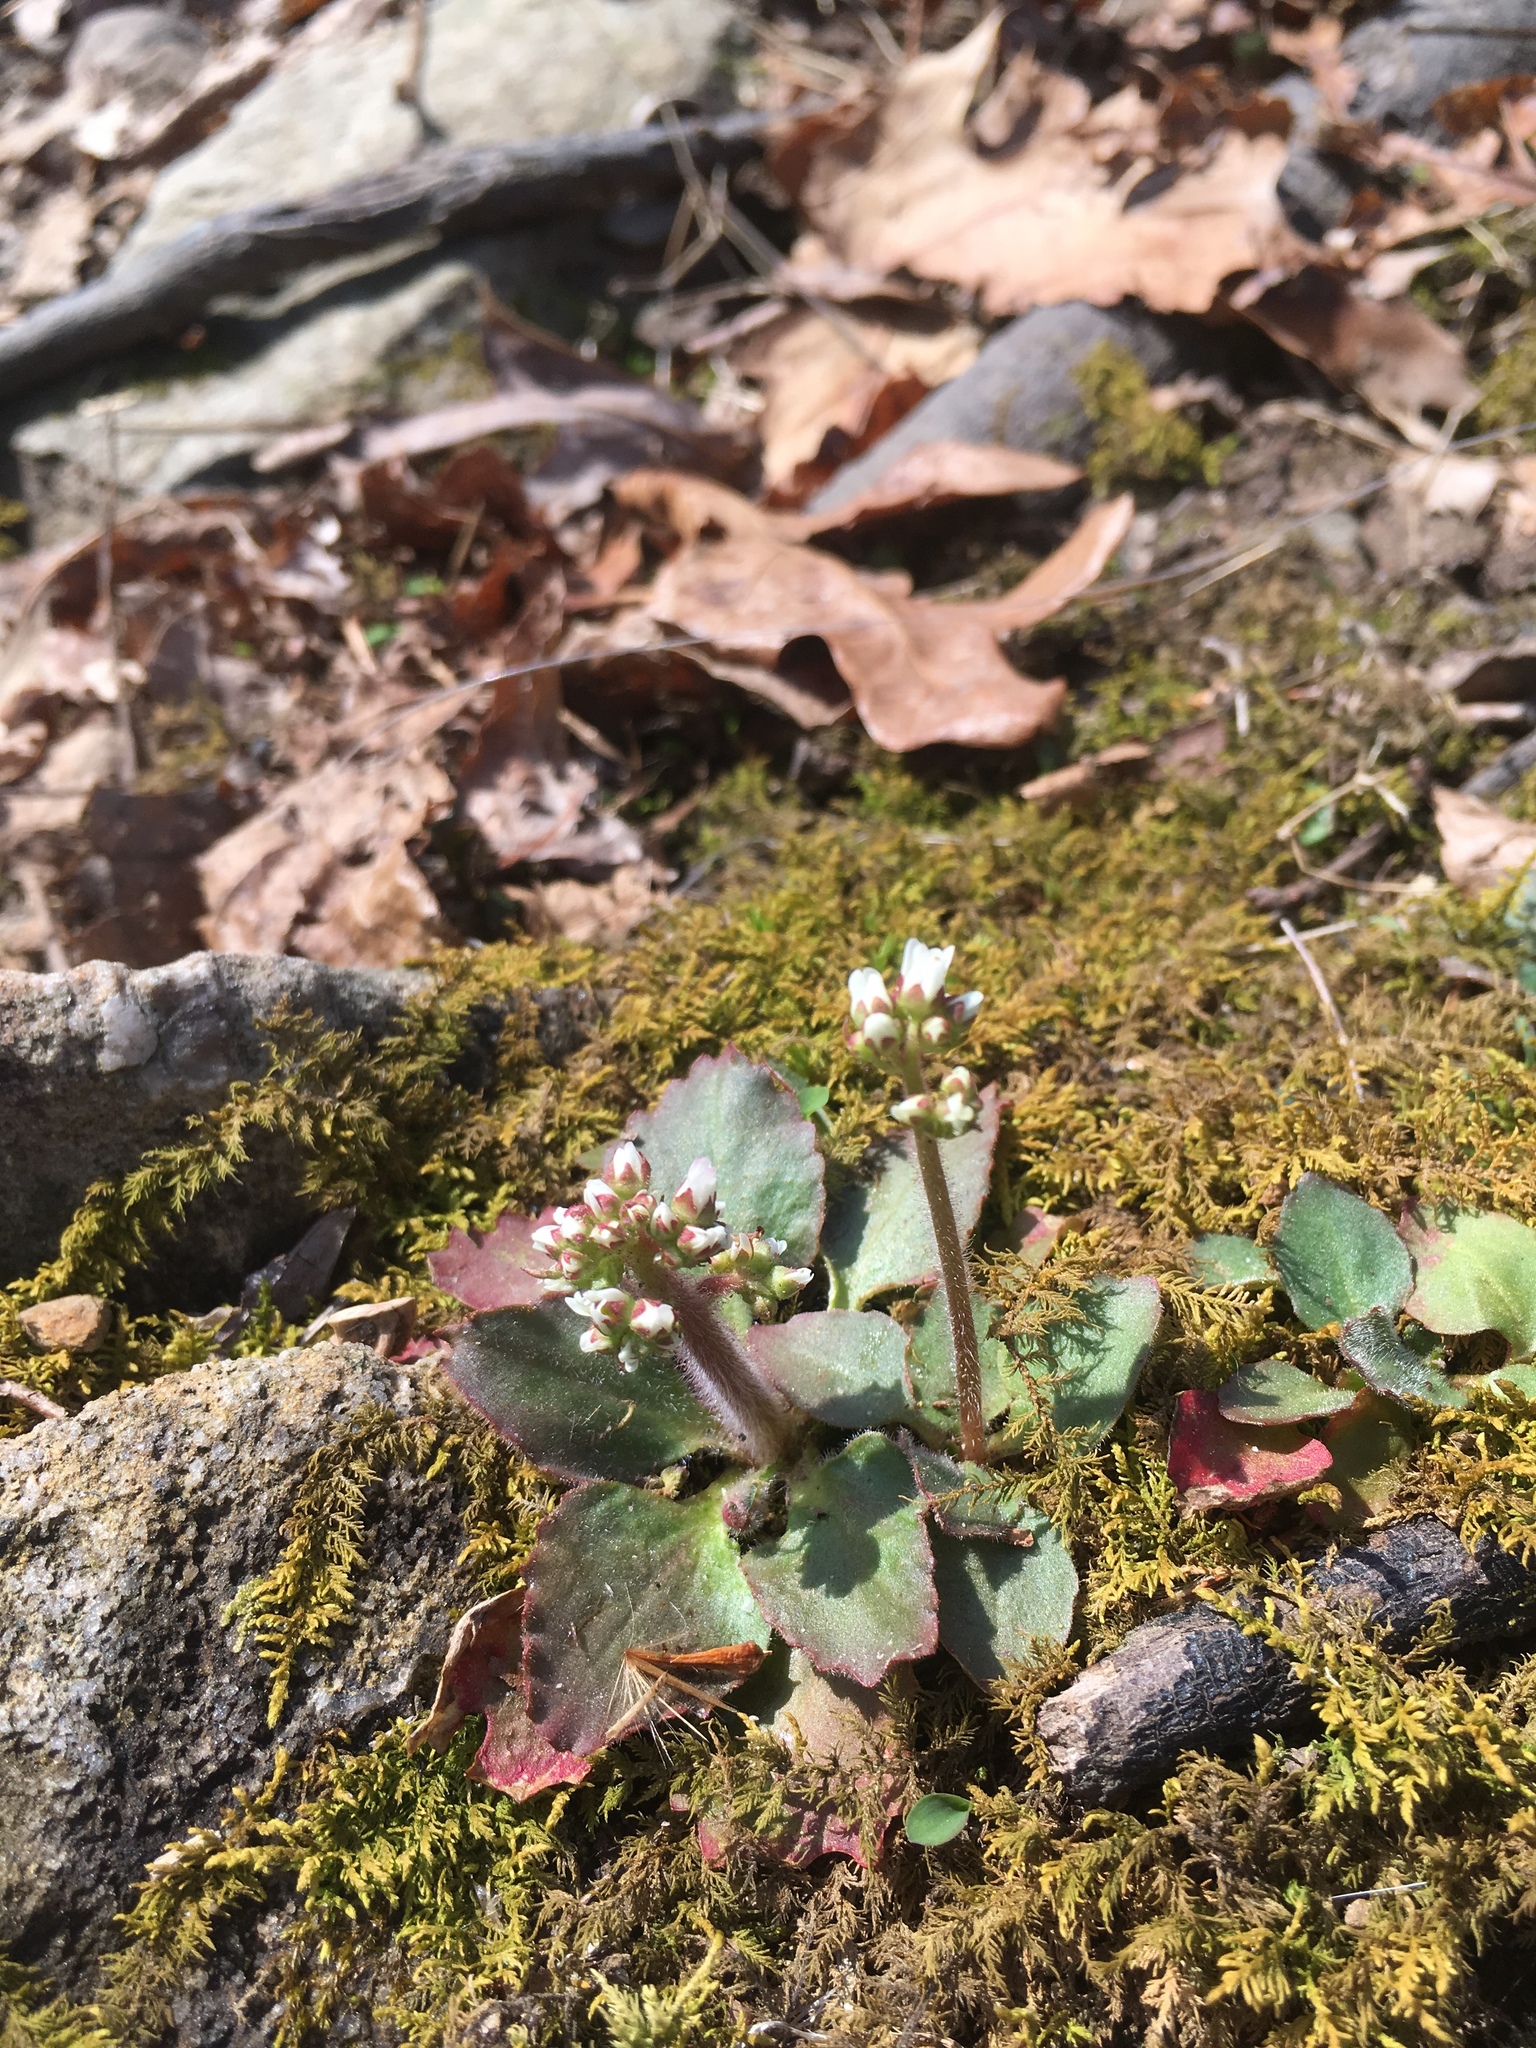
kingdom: Plantae
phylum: Tracheophyta
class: Magnoliopsida
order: Saxifragales
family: Saxifragaceae
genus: Micranthes
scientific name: Micranthes virginiensis
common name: Early saxifrage
